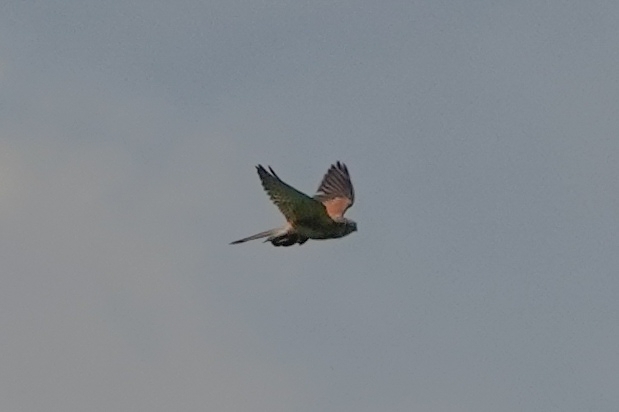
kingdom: Animalia
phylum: Chordata
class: Aves
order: Falconiformes
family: Falconidae
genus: Falco
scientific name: Falco tinnunculus
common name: Common kestrel
